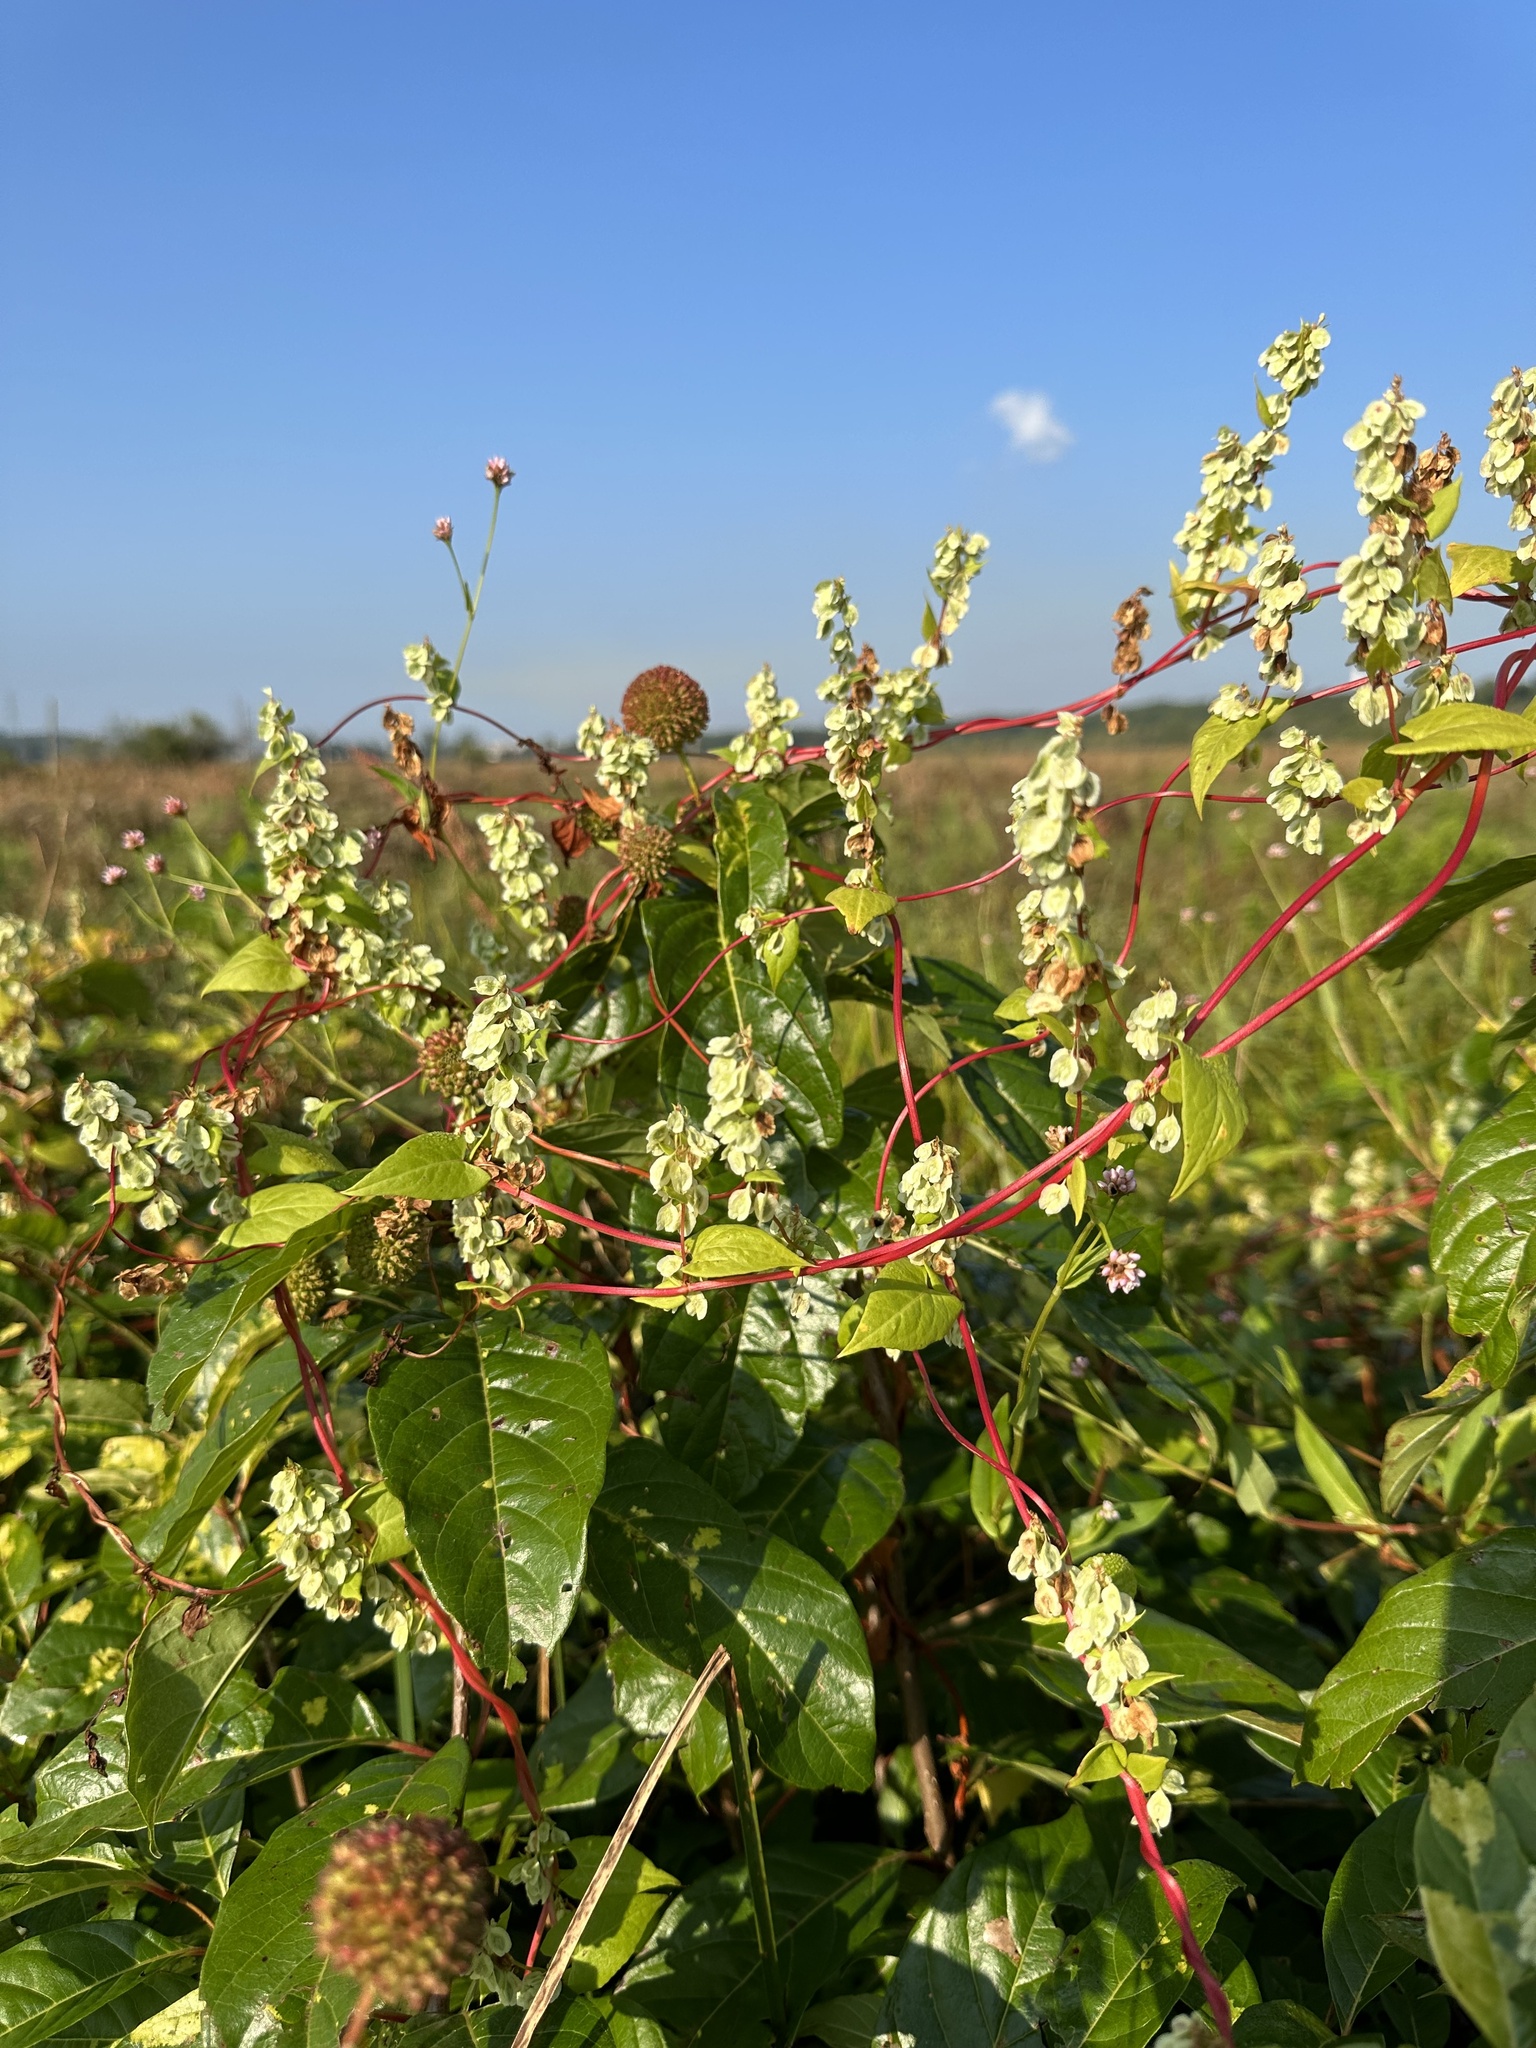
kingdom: Plantae
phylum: Tracheophyta
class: Magnoliopsida
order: Caryophyllales
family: Polygonaceae
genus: Fallopia
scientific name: Fallopia scandens
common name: Climbing false buckwheat
